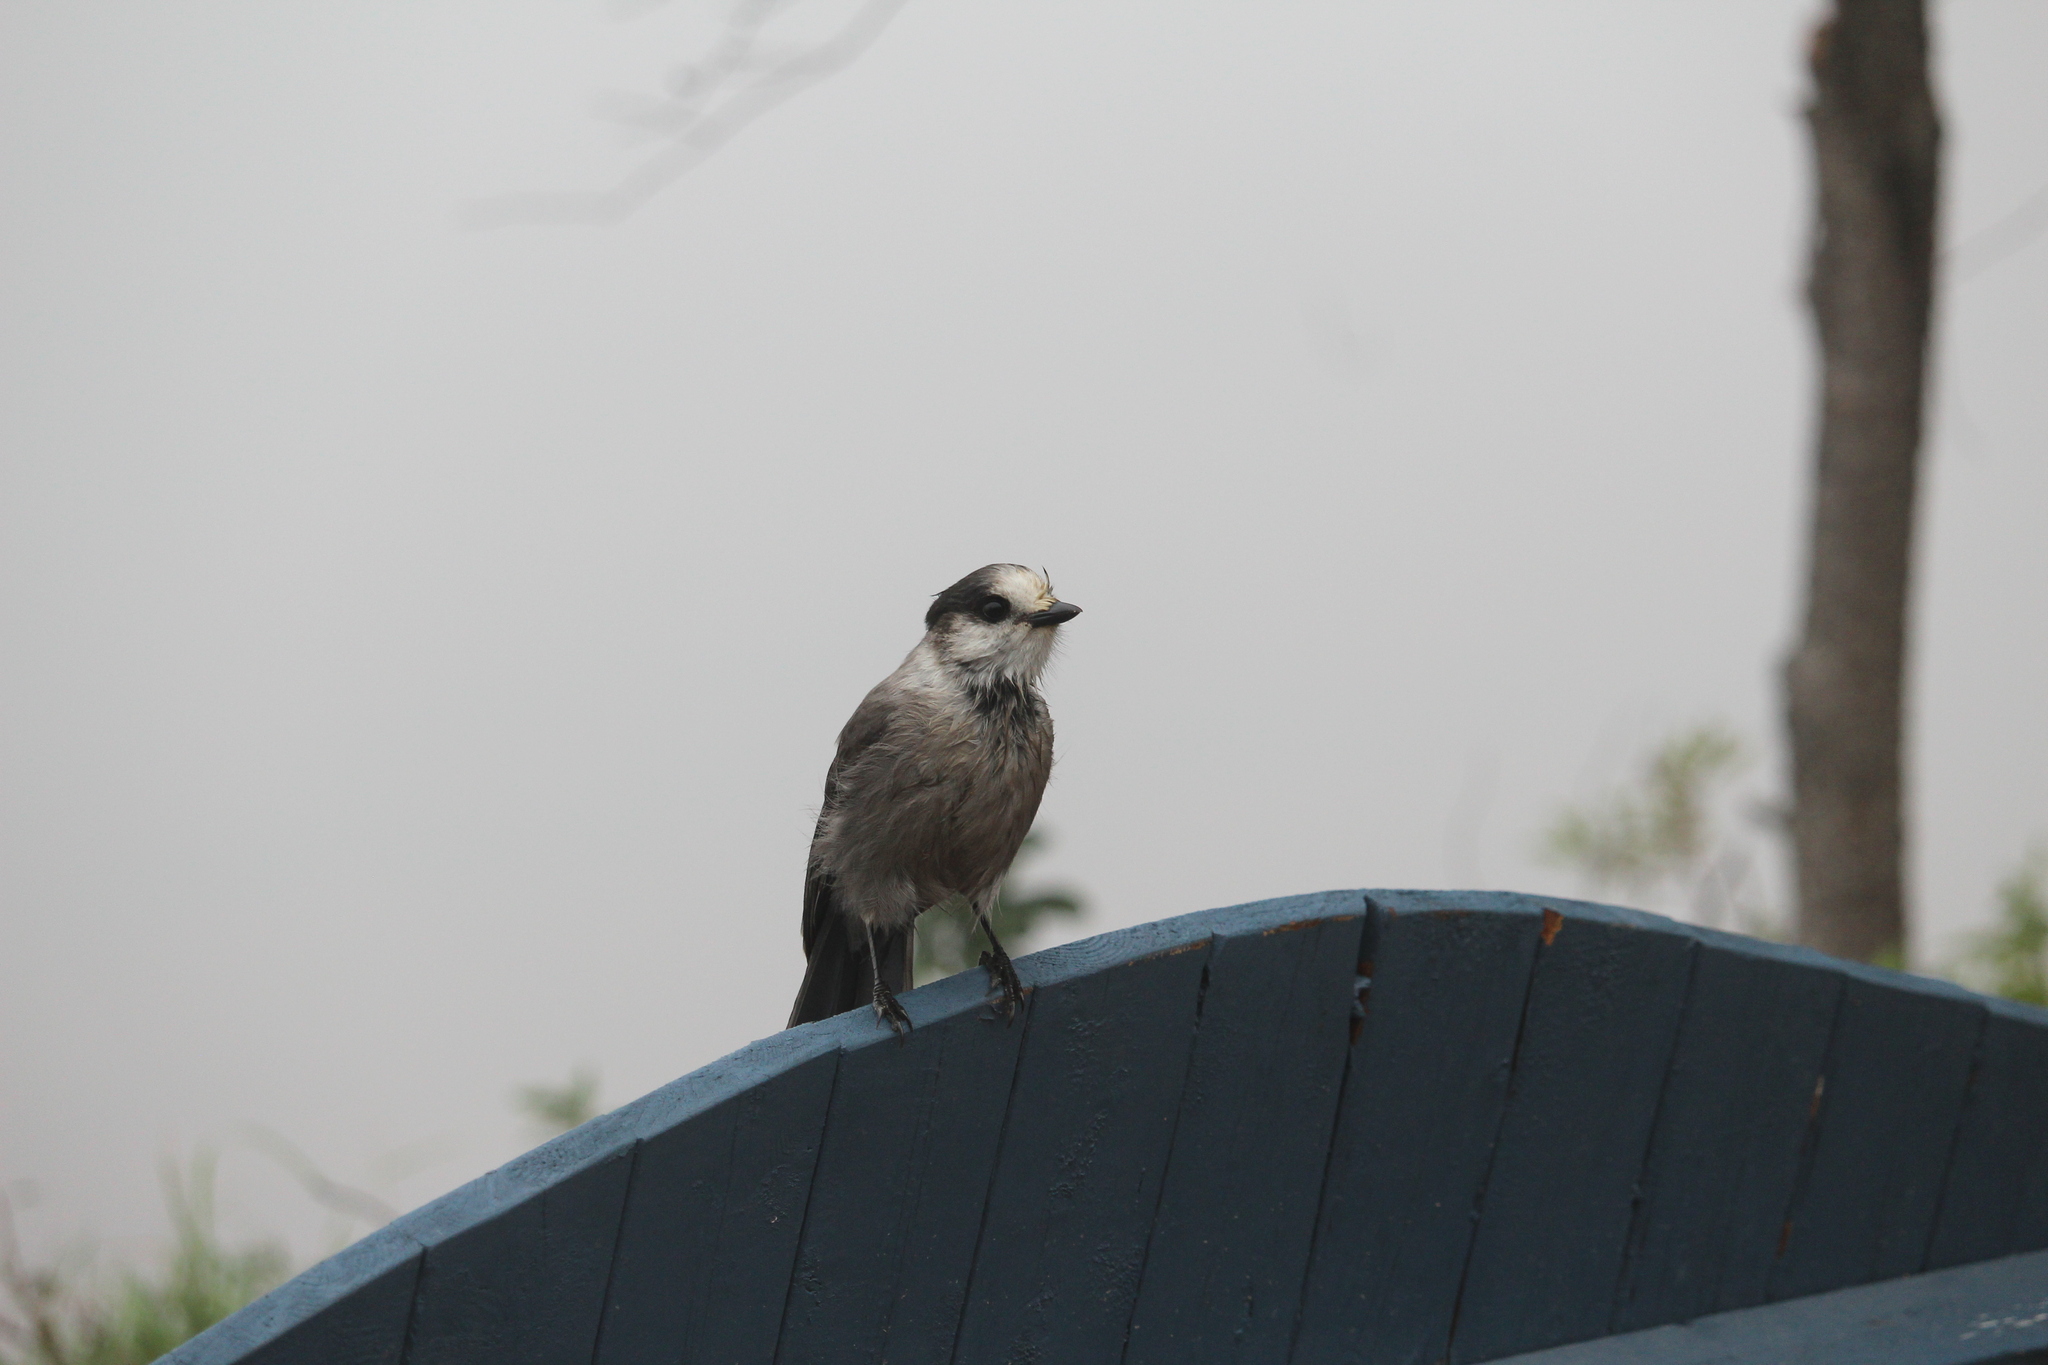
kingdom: Animalia
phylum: Chordata
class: Aves
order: Passeriformes
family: Corvidae
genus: Perisoreus
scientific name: Perisoreus canadensis
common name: Gray jay
